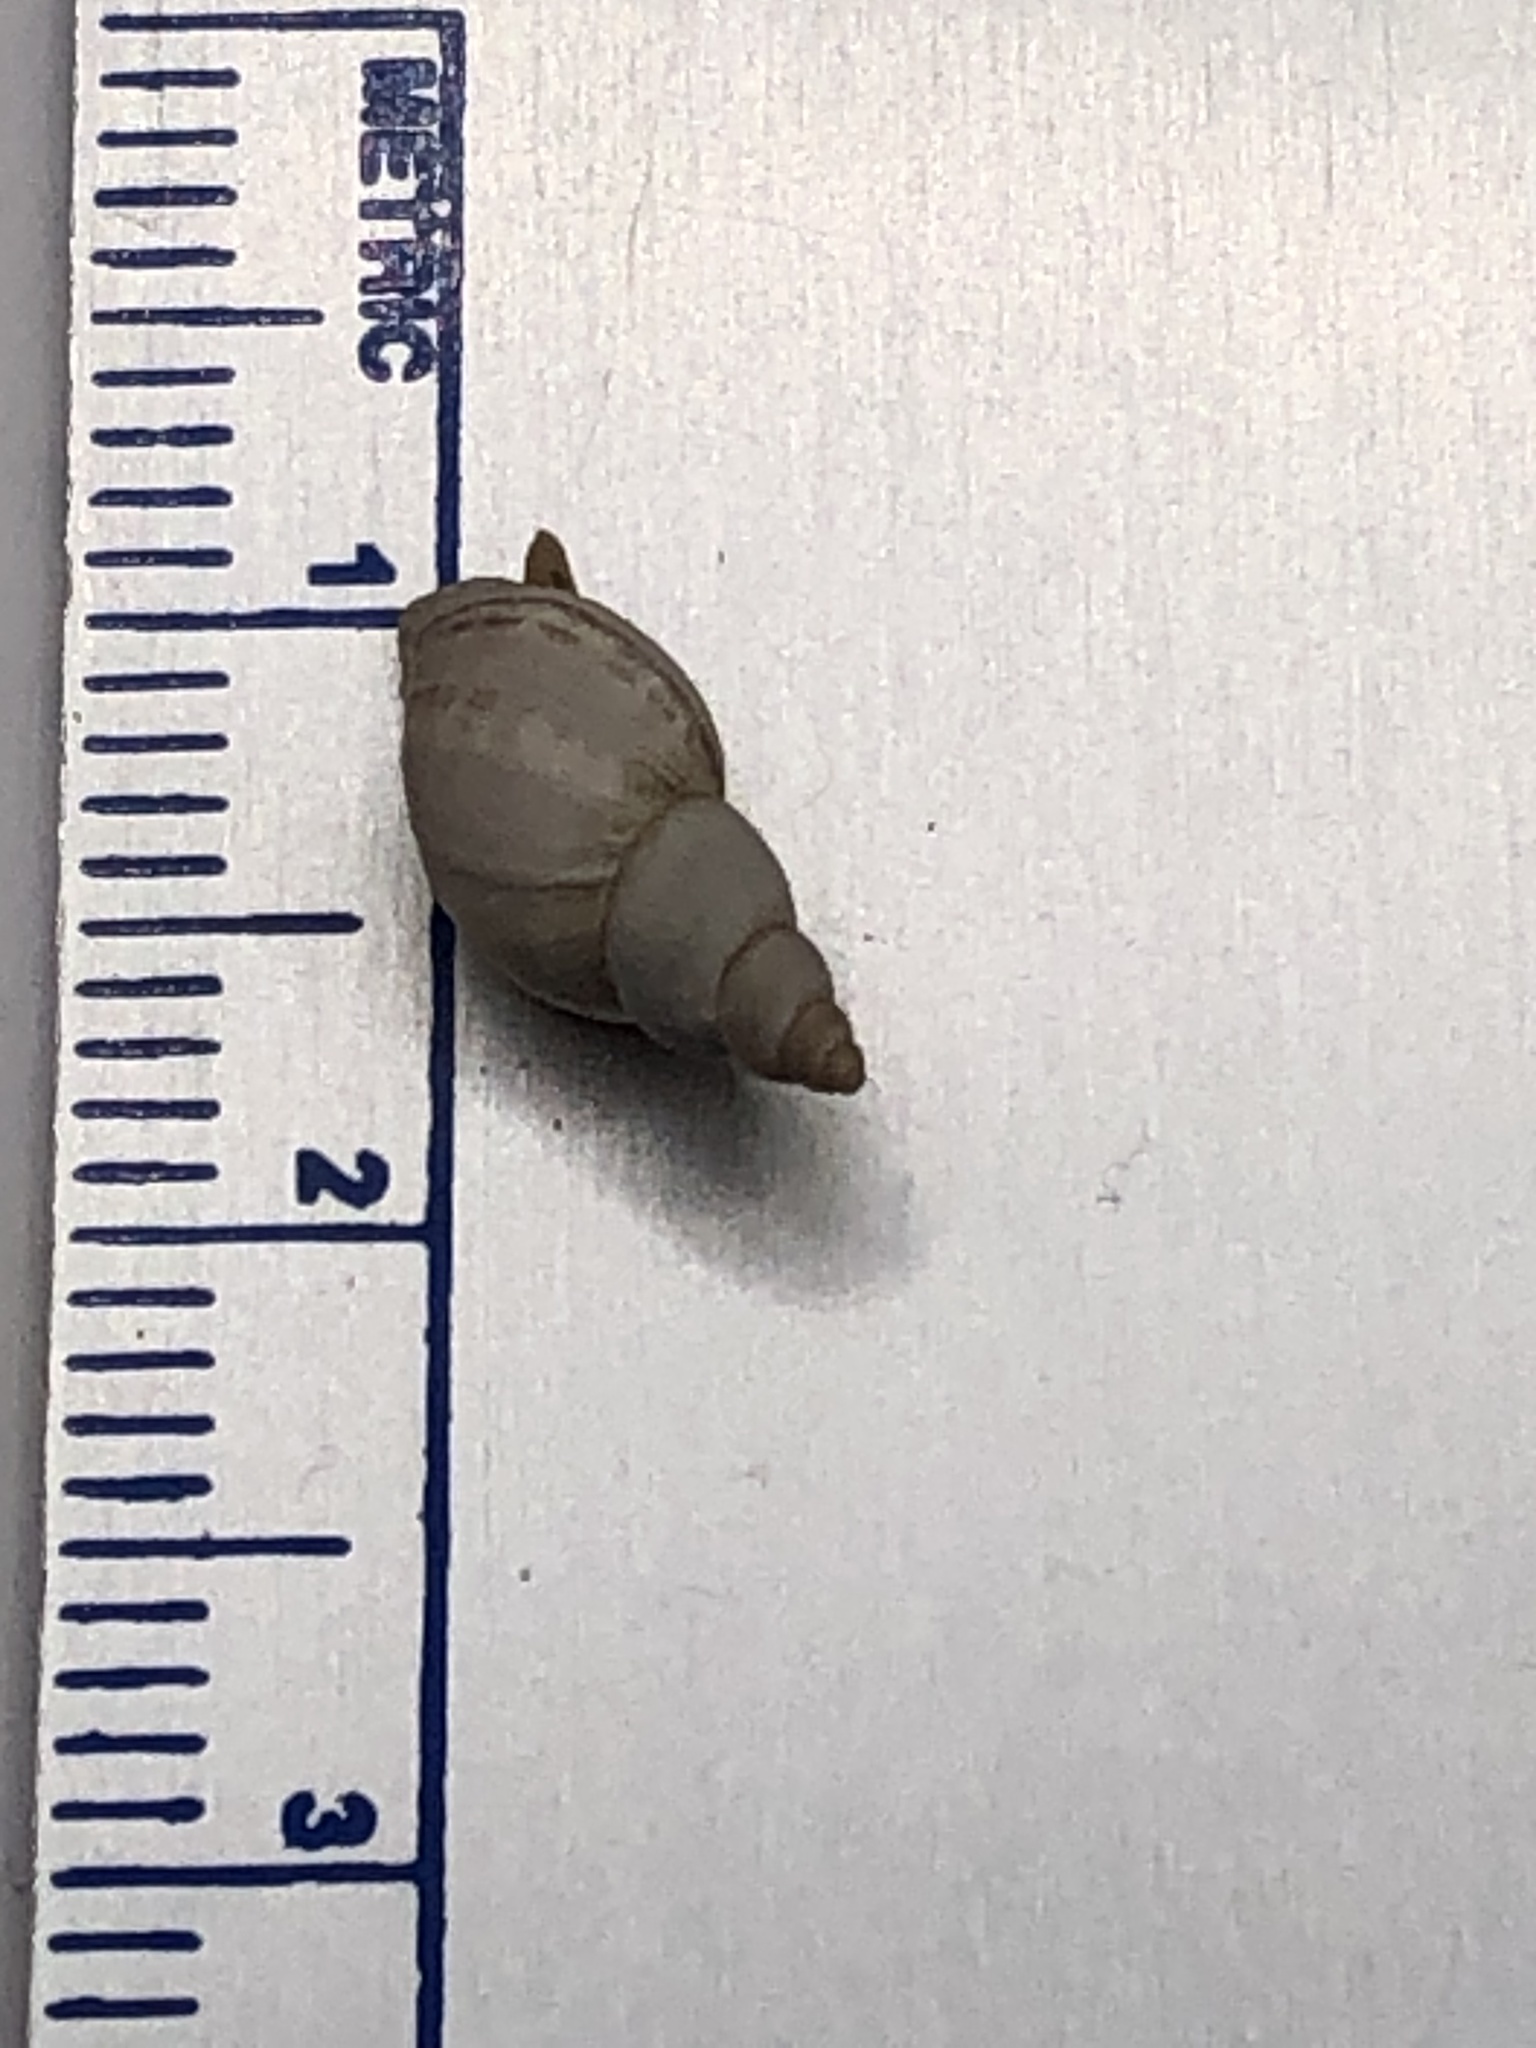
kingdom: Animalia
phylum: Mollusca
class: Gastropoda
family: Lymnaeidae
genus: Ladislavella
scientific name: Ladislavella elodes
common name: Marsh pondsnail
